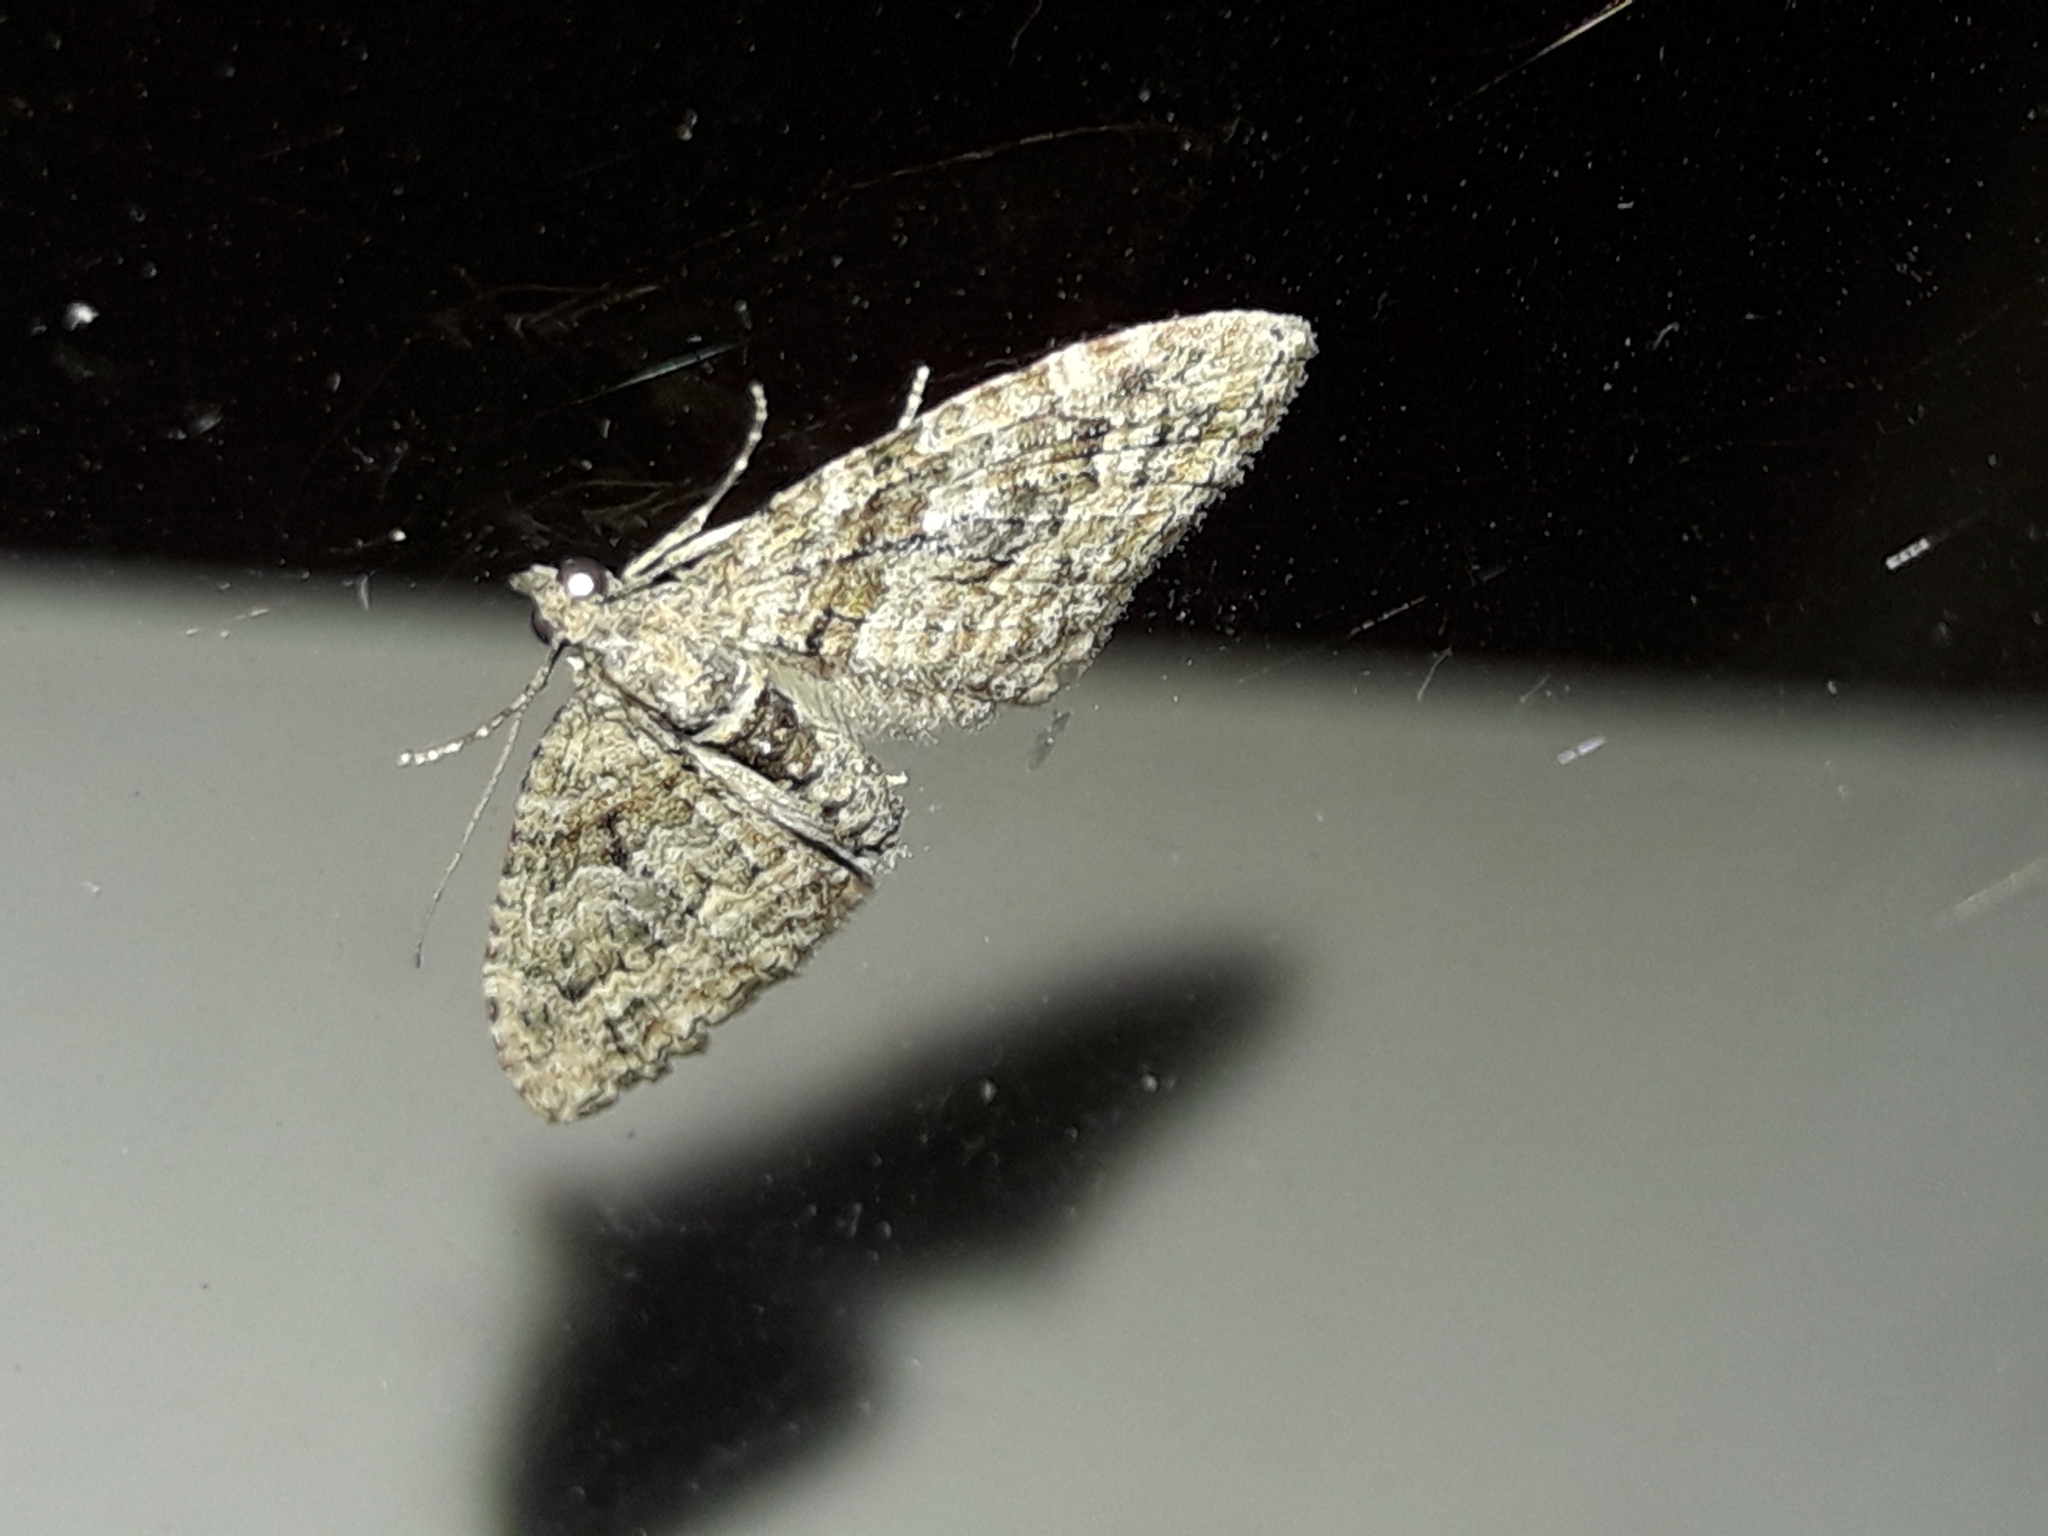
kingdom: Animalia
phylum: Arthropoda
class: Insecta
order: Lepidoptera
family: Geometridae
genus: Phrissogonus
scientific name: Phrissogonus laticostata
